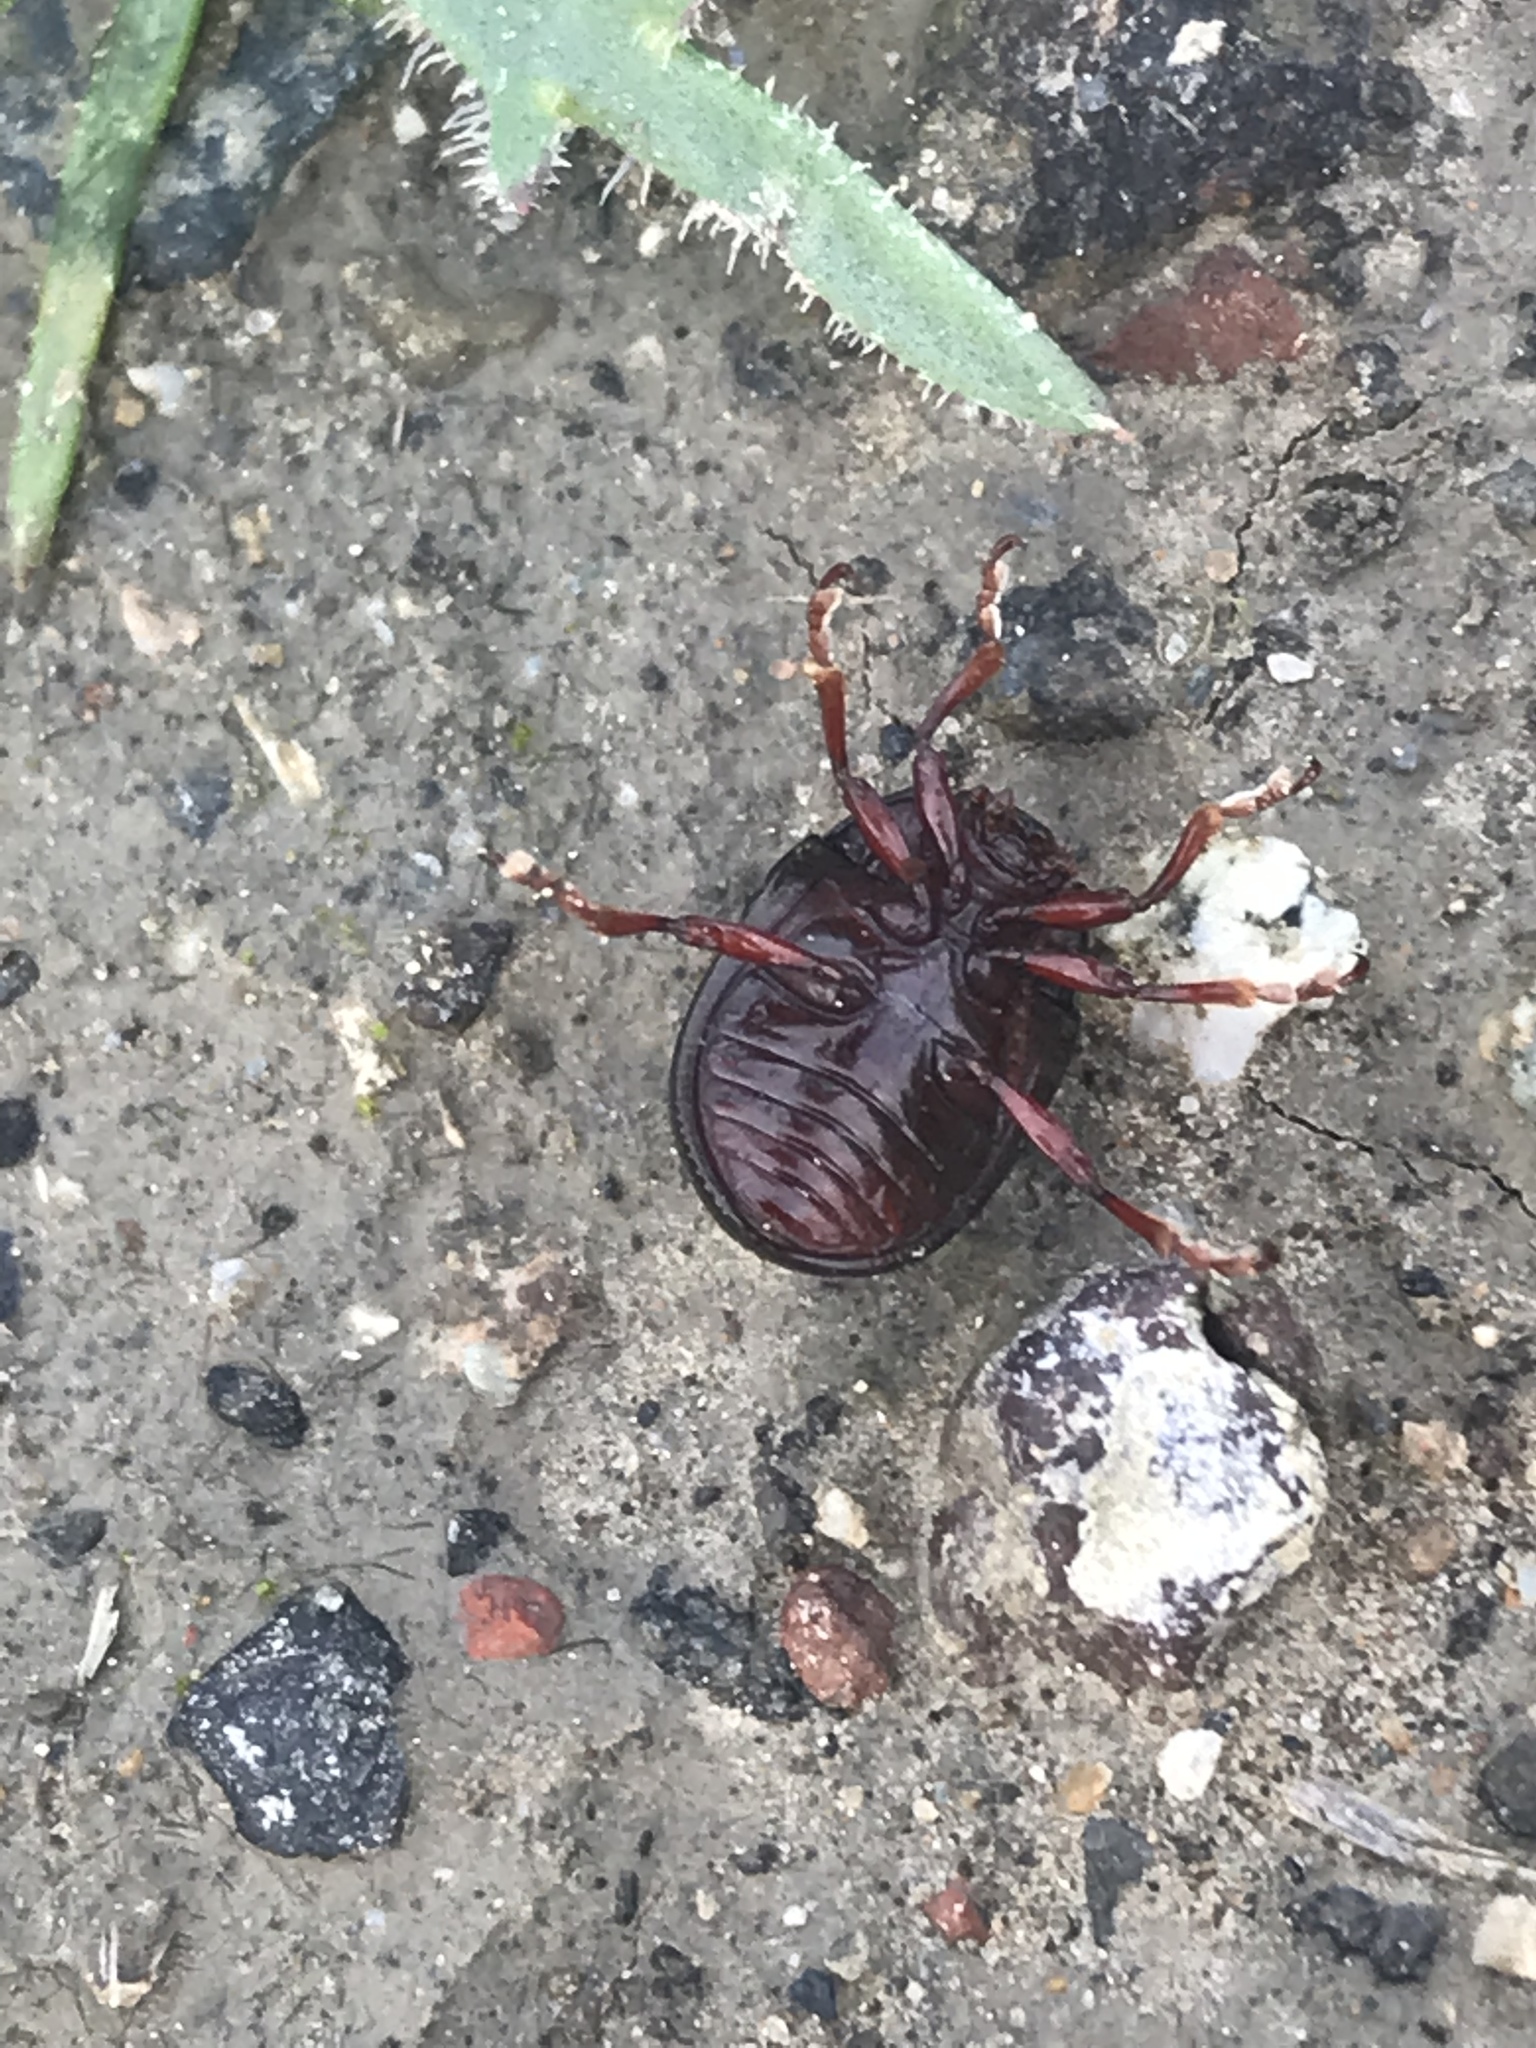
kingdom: Animalia
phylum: Arthropoda
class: Insecta
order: Coleoptera
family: Chrysomelidae
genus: Chrysolina
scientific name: Chrysolina bankii
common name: Leaf beetle
